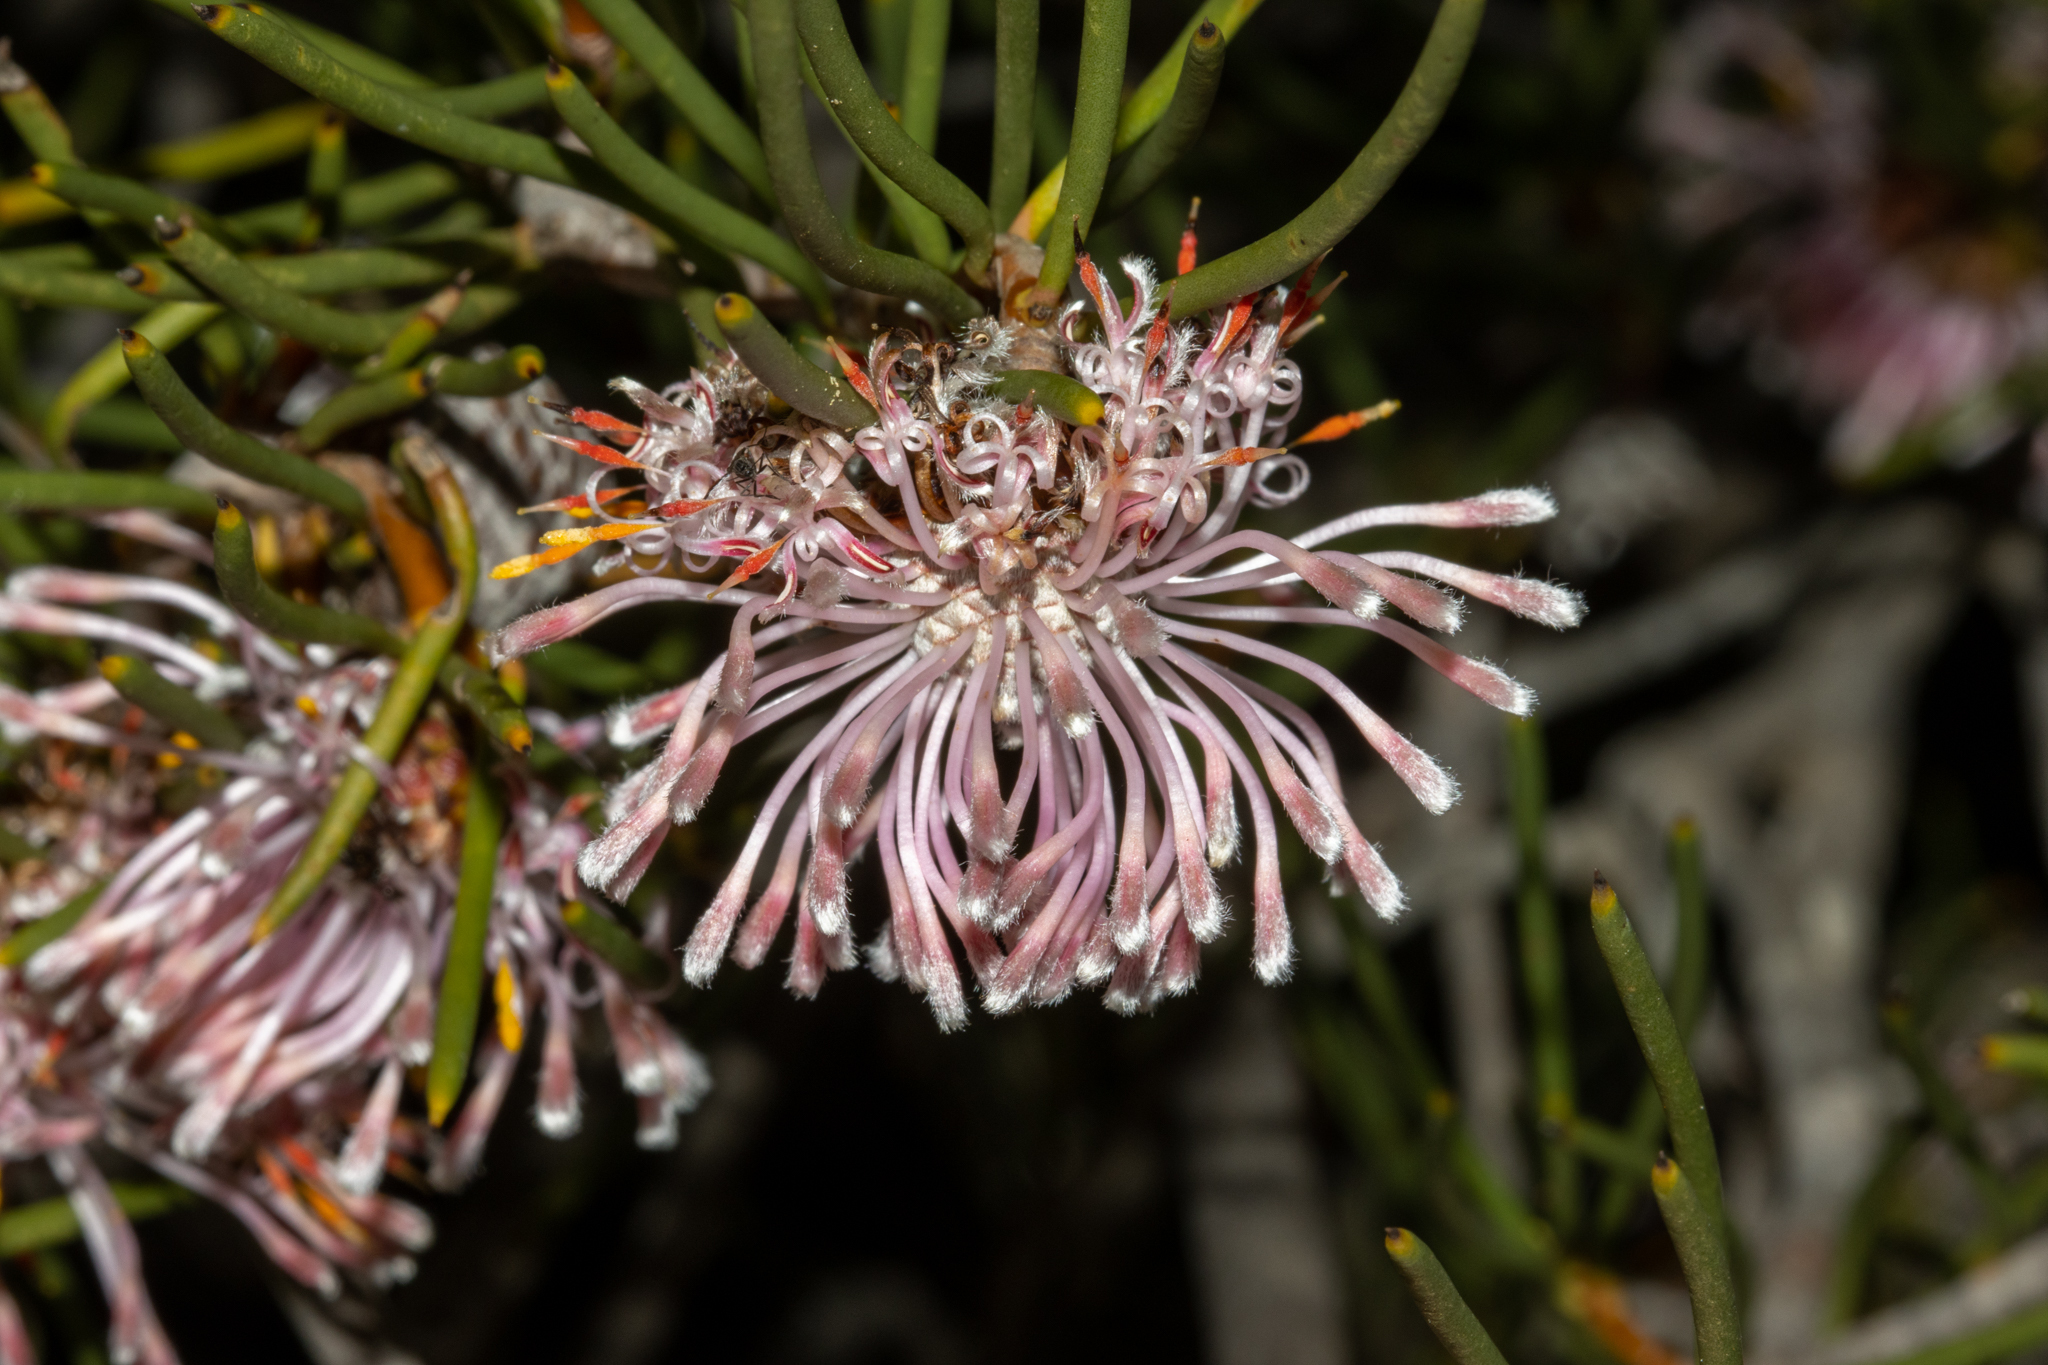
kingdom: Plantae
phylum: Tracheophyta
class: Magnoliopsida
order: Proteales
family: Proteaceae
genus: Isopogon
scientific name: Isopogon nutans
